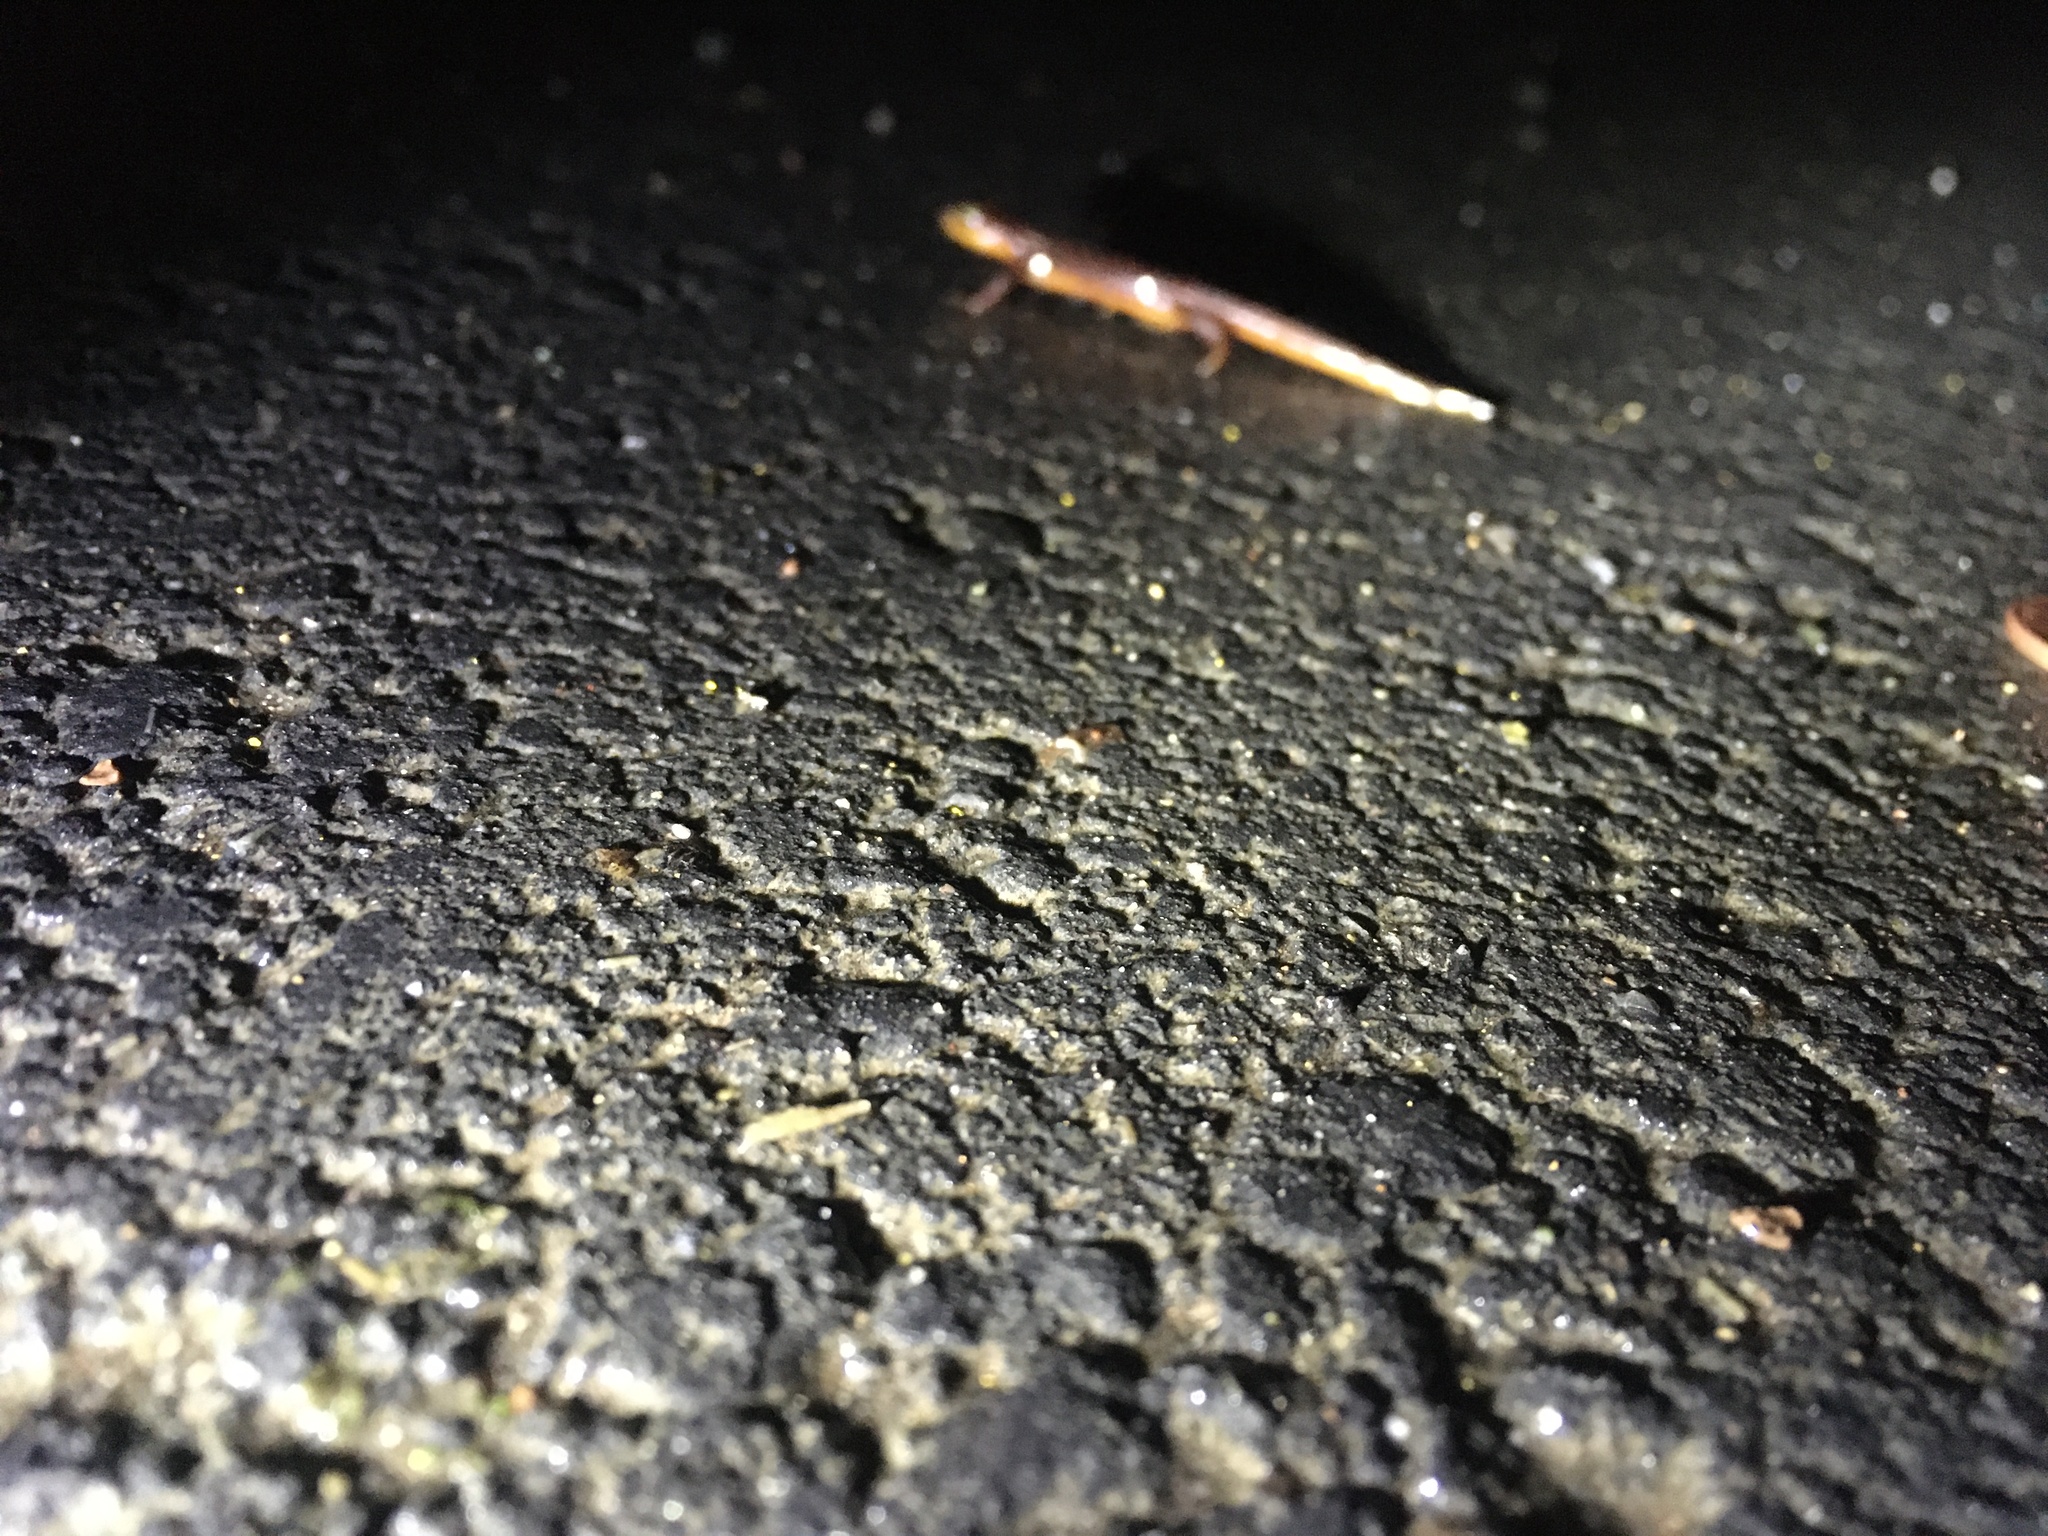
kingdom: Animalia
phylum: Chordata
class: Amphibia
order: Caudata
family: Salamandridae
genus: Taricha
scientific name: Taricha torosa
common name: California newt
